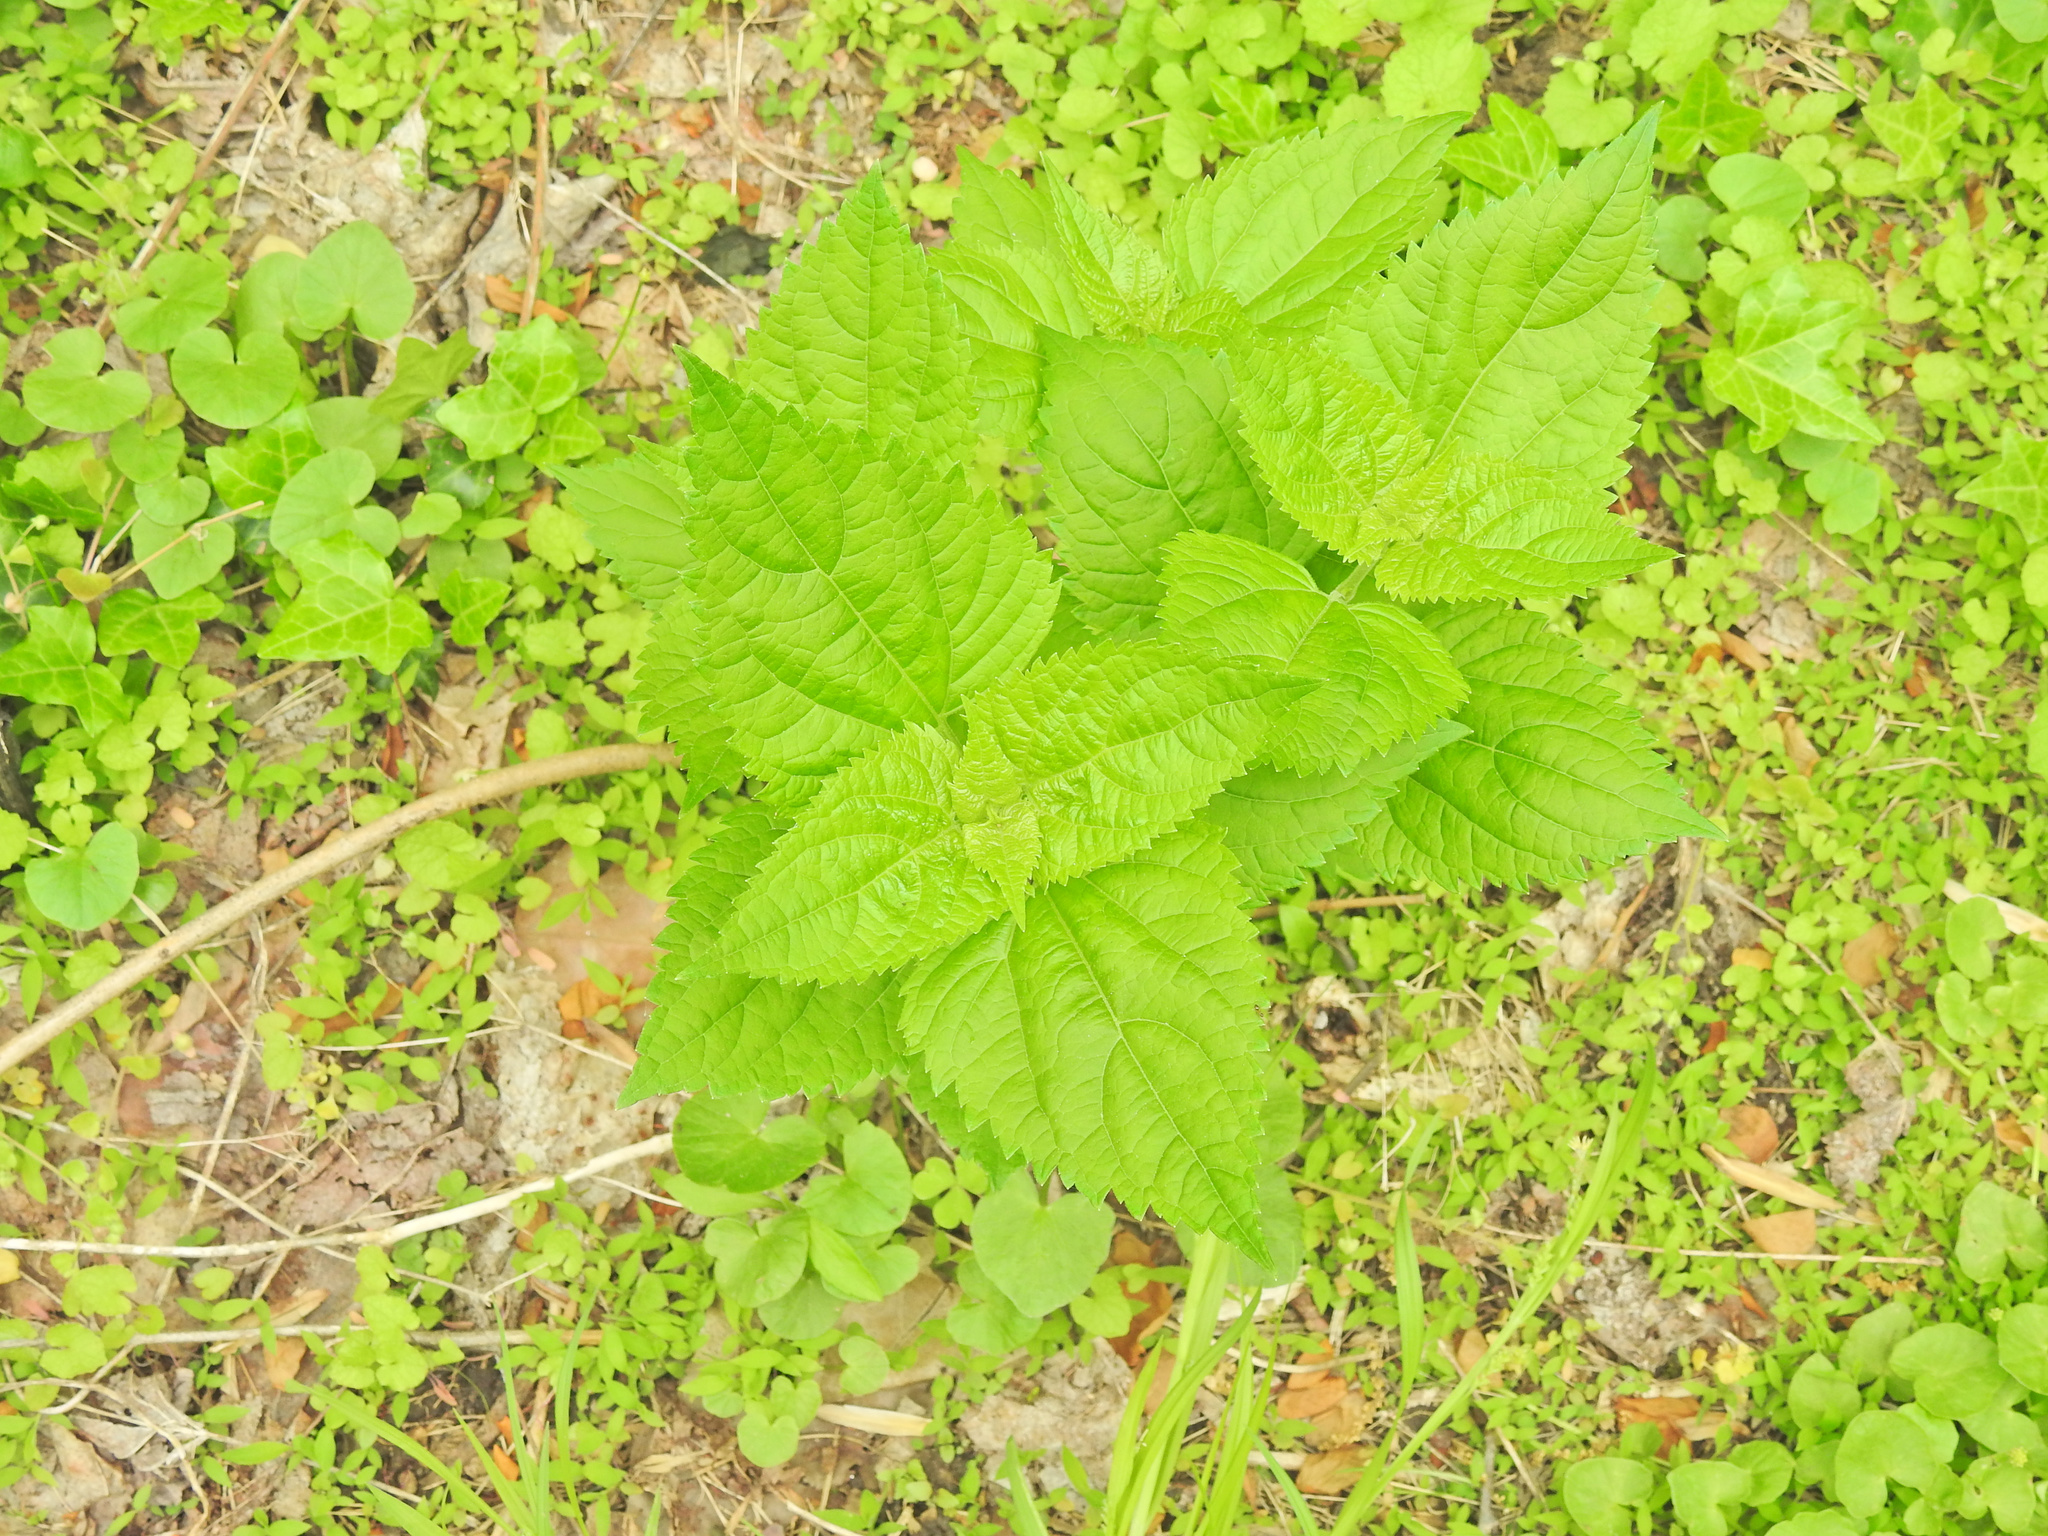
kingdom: Plantae
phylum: Tracheophyta
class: Magnoliopsida
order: Asterales
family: Asteraceae
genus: Ageratina
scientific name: Ageratina altissima
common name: White snakeroot
